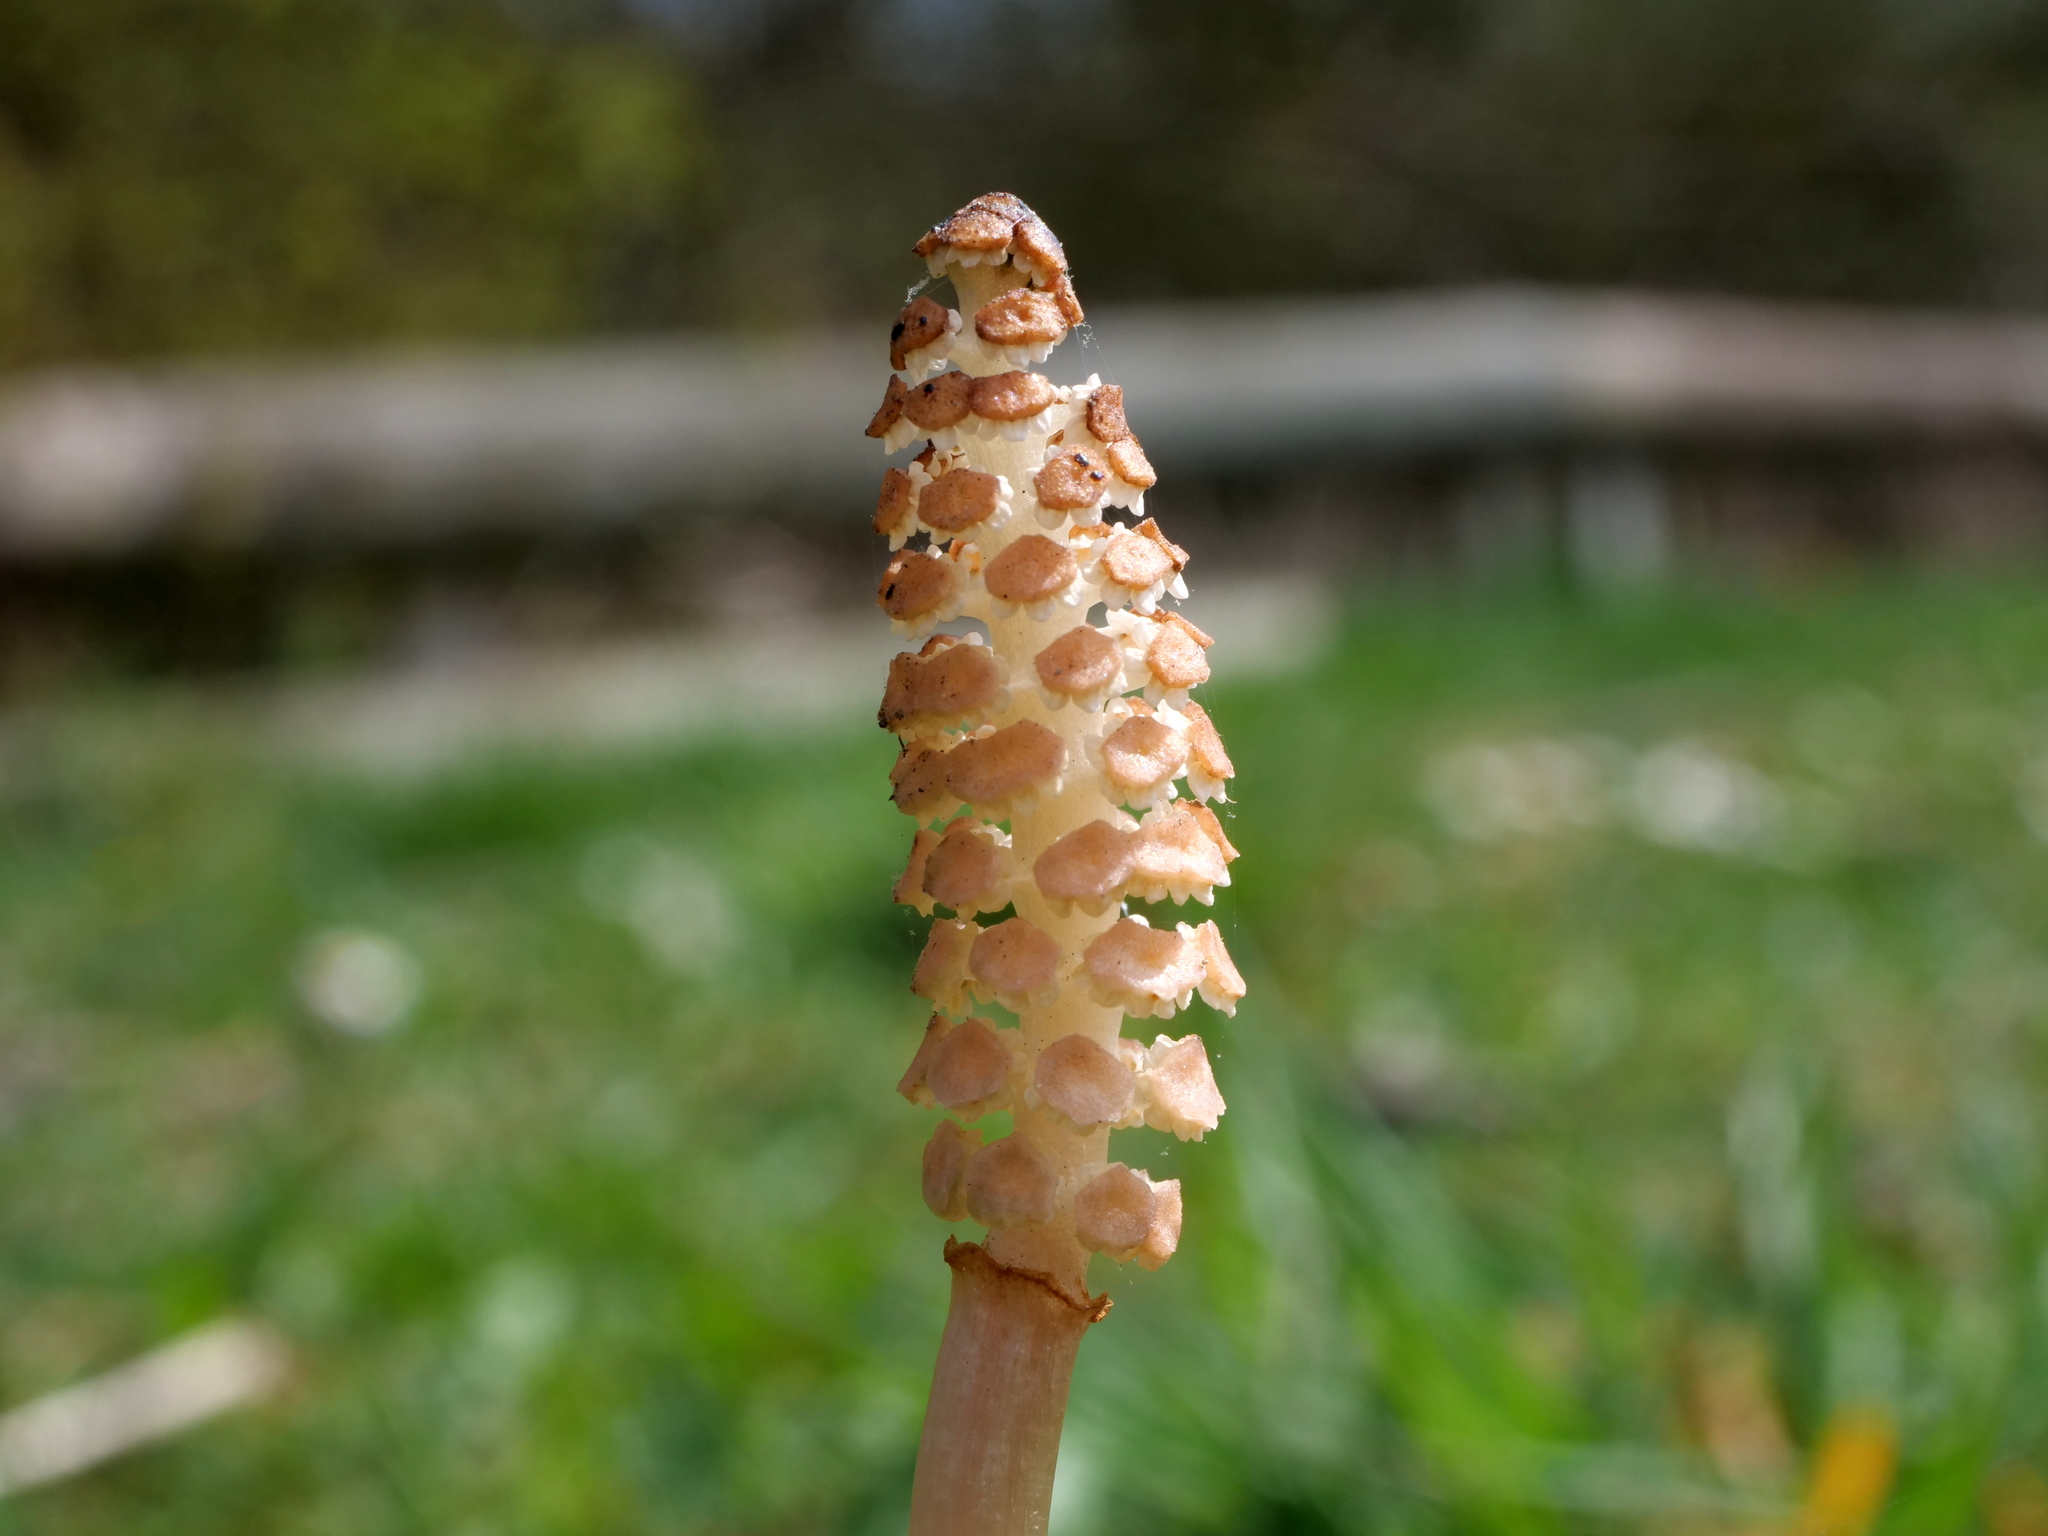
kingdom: Plantae
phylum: Tracheophyta
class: Polypodiopsida
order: Equisetales
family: Equisetaceae
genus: Equisetum
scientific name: Equisetum arvense
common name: Field horsetail
